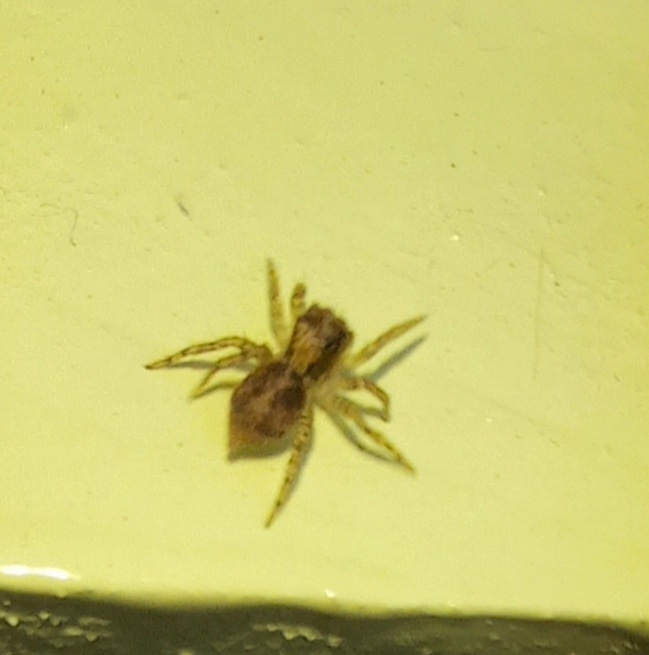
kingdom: Animalia
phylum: Arthropoda
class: Arachnida
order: Araneae
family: Salticidae
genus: Saitis
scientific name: Saitis variegatus
